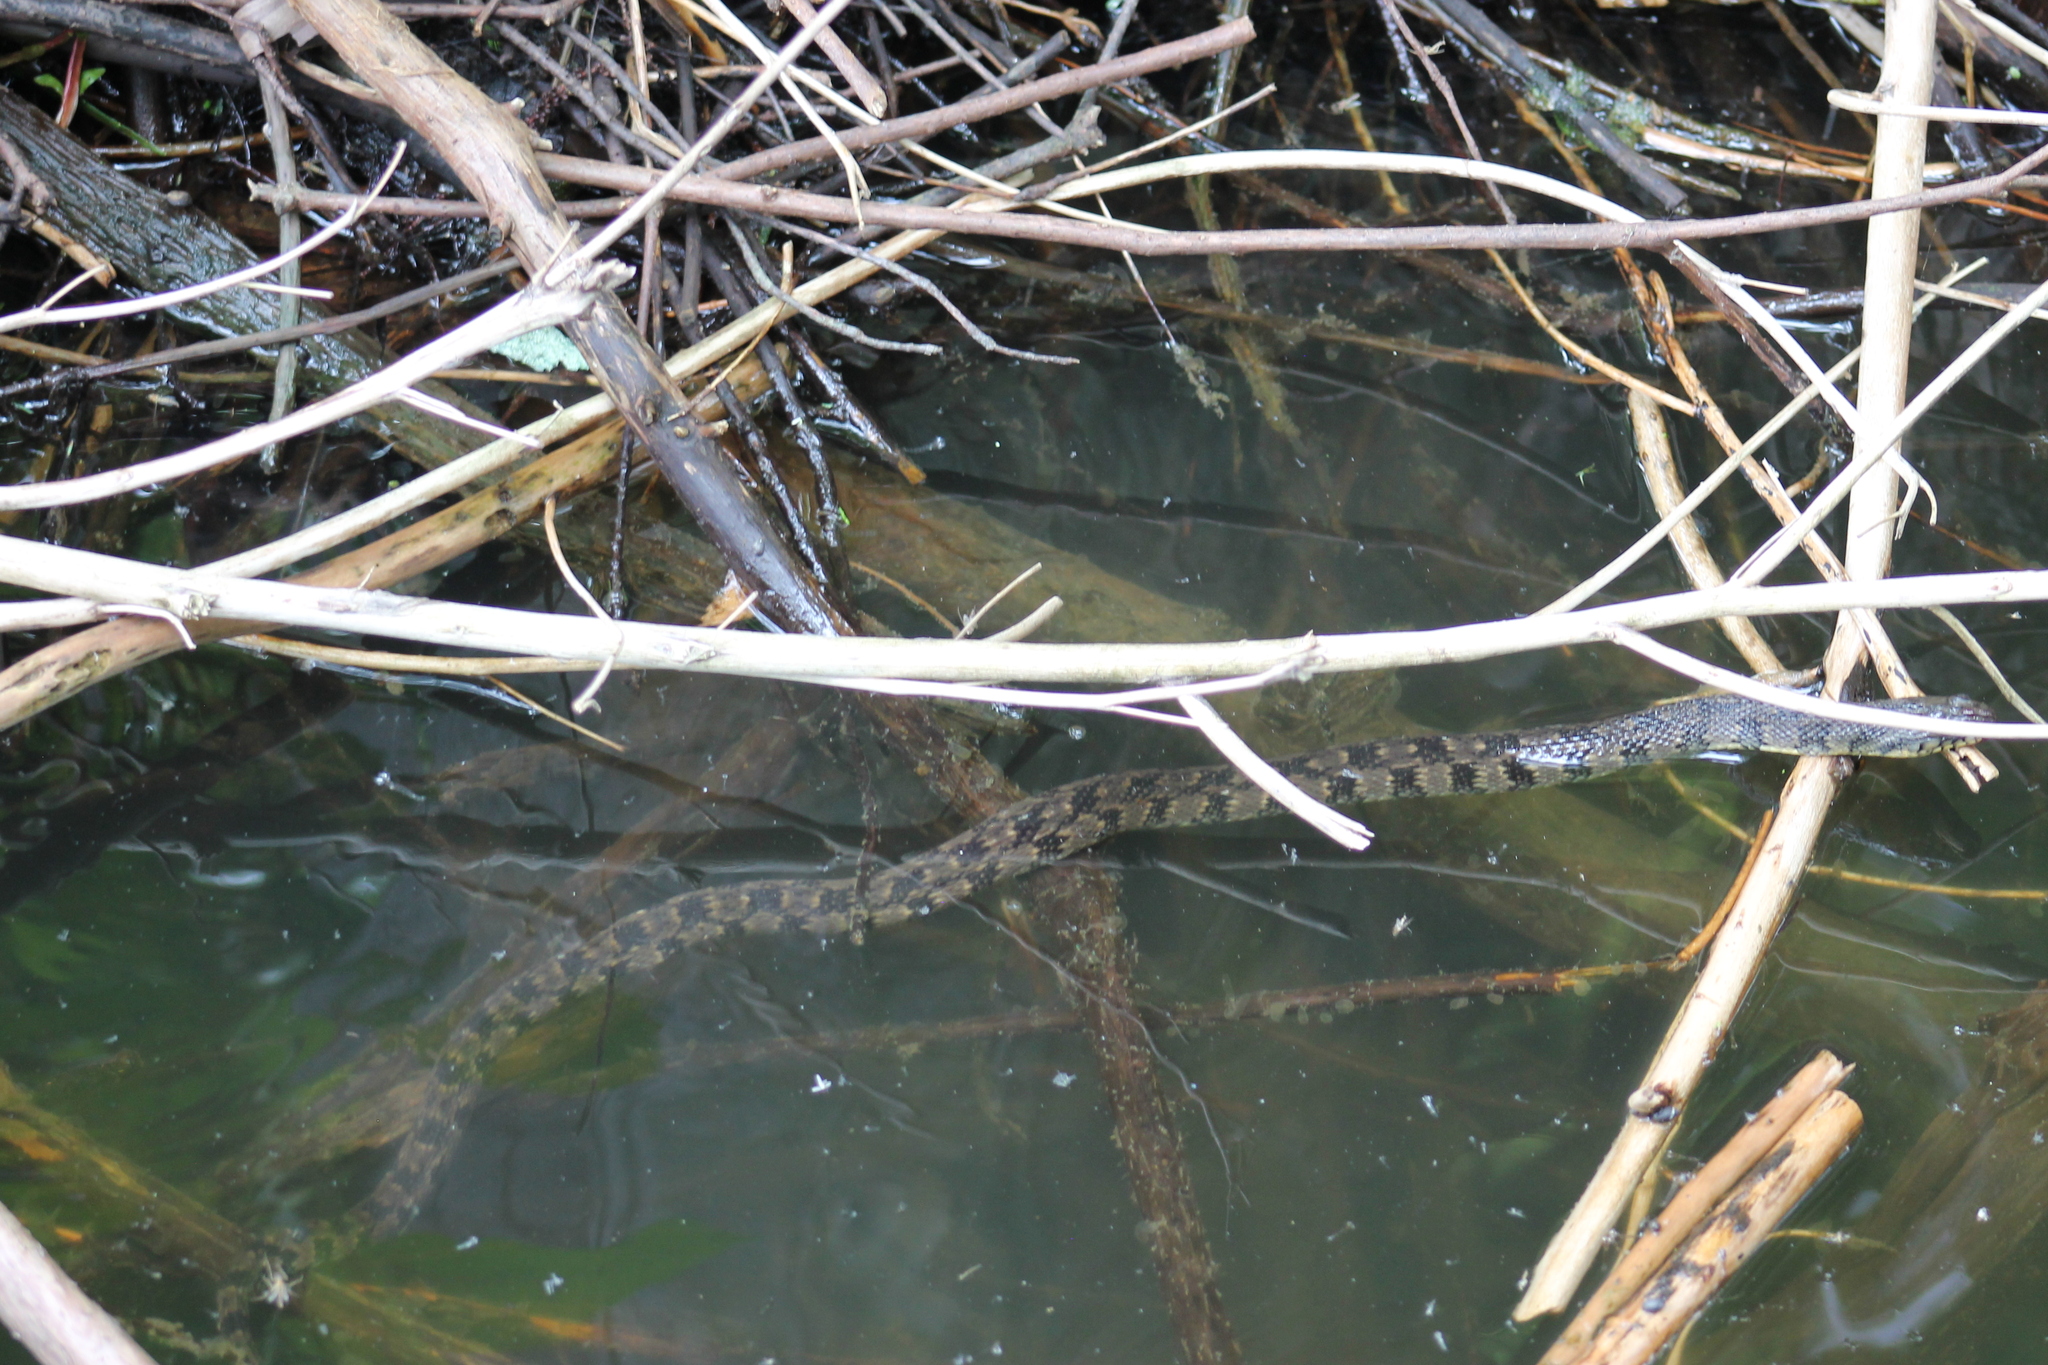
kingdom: Animalia
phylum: Chordata
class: Squamata
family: Colubridae
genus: Nerodia
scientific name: Nerodia rhombifer
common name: Diamondback water snake
